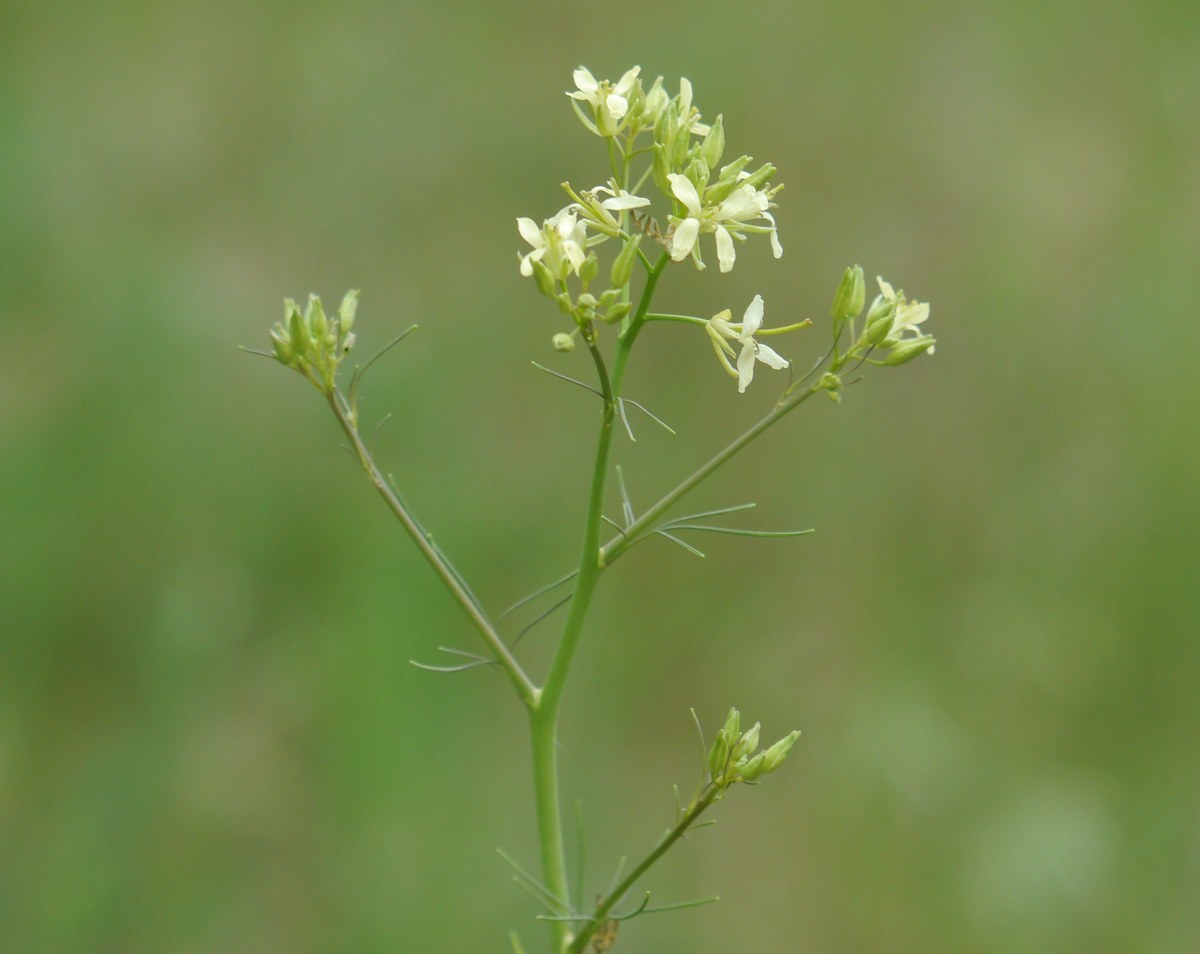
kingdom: Plantae
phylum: Tracheophyta
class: Magnoliopsida
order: Brassicales
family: Brassicaceae
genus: Sisymbrium
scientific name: Sisymbrium altissimum
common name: Tall rocket
